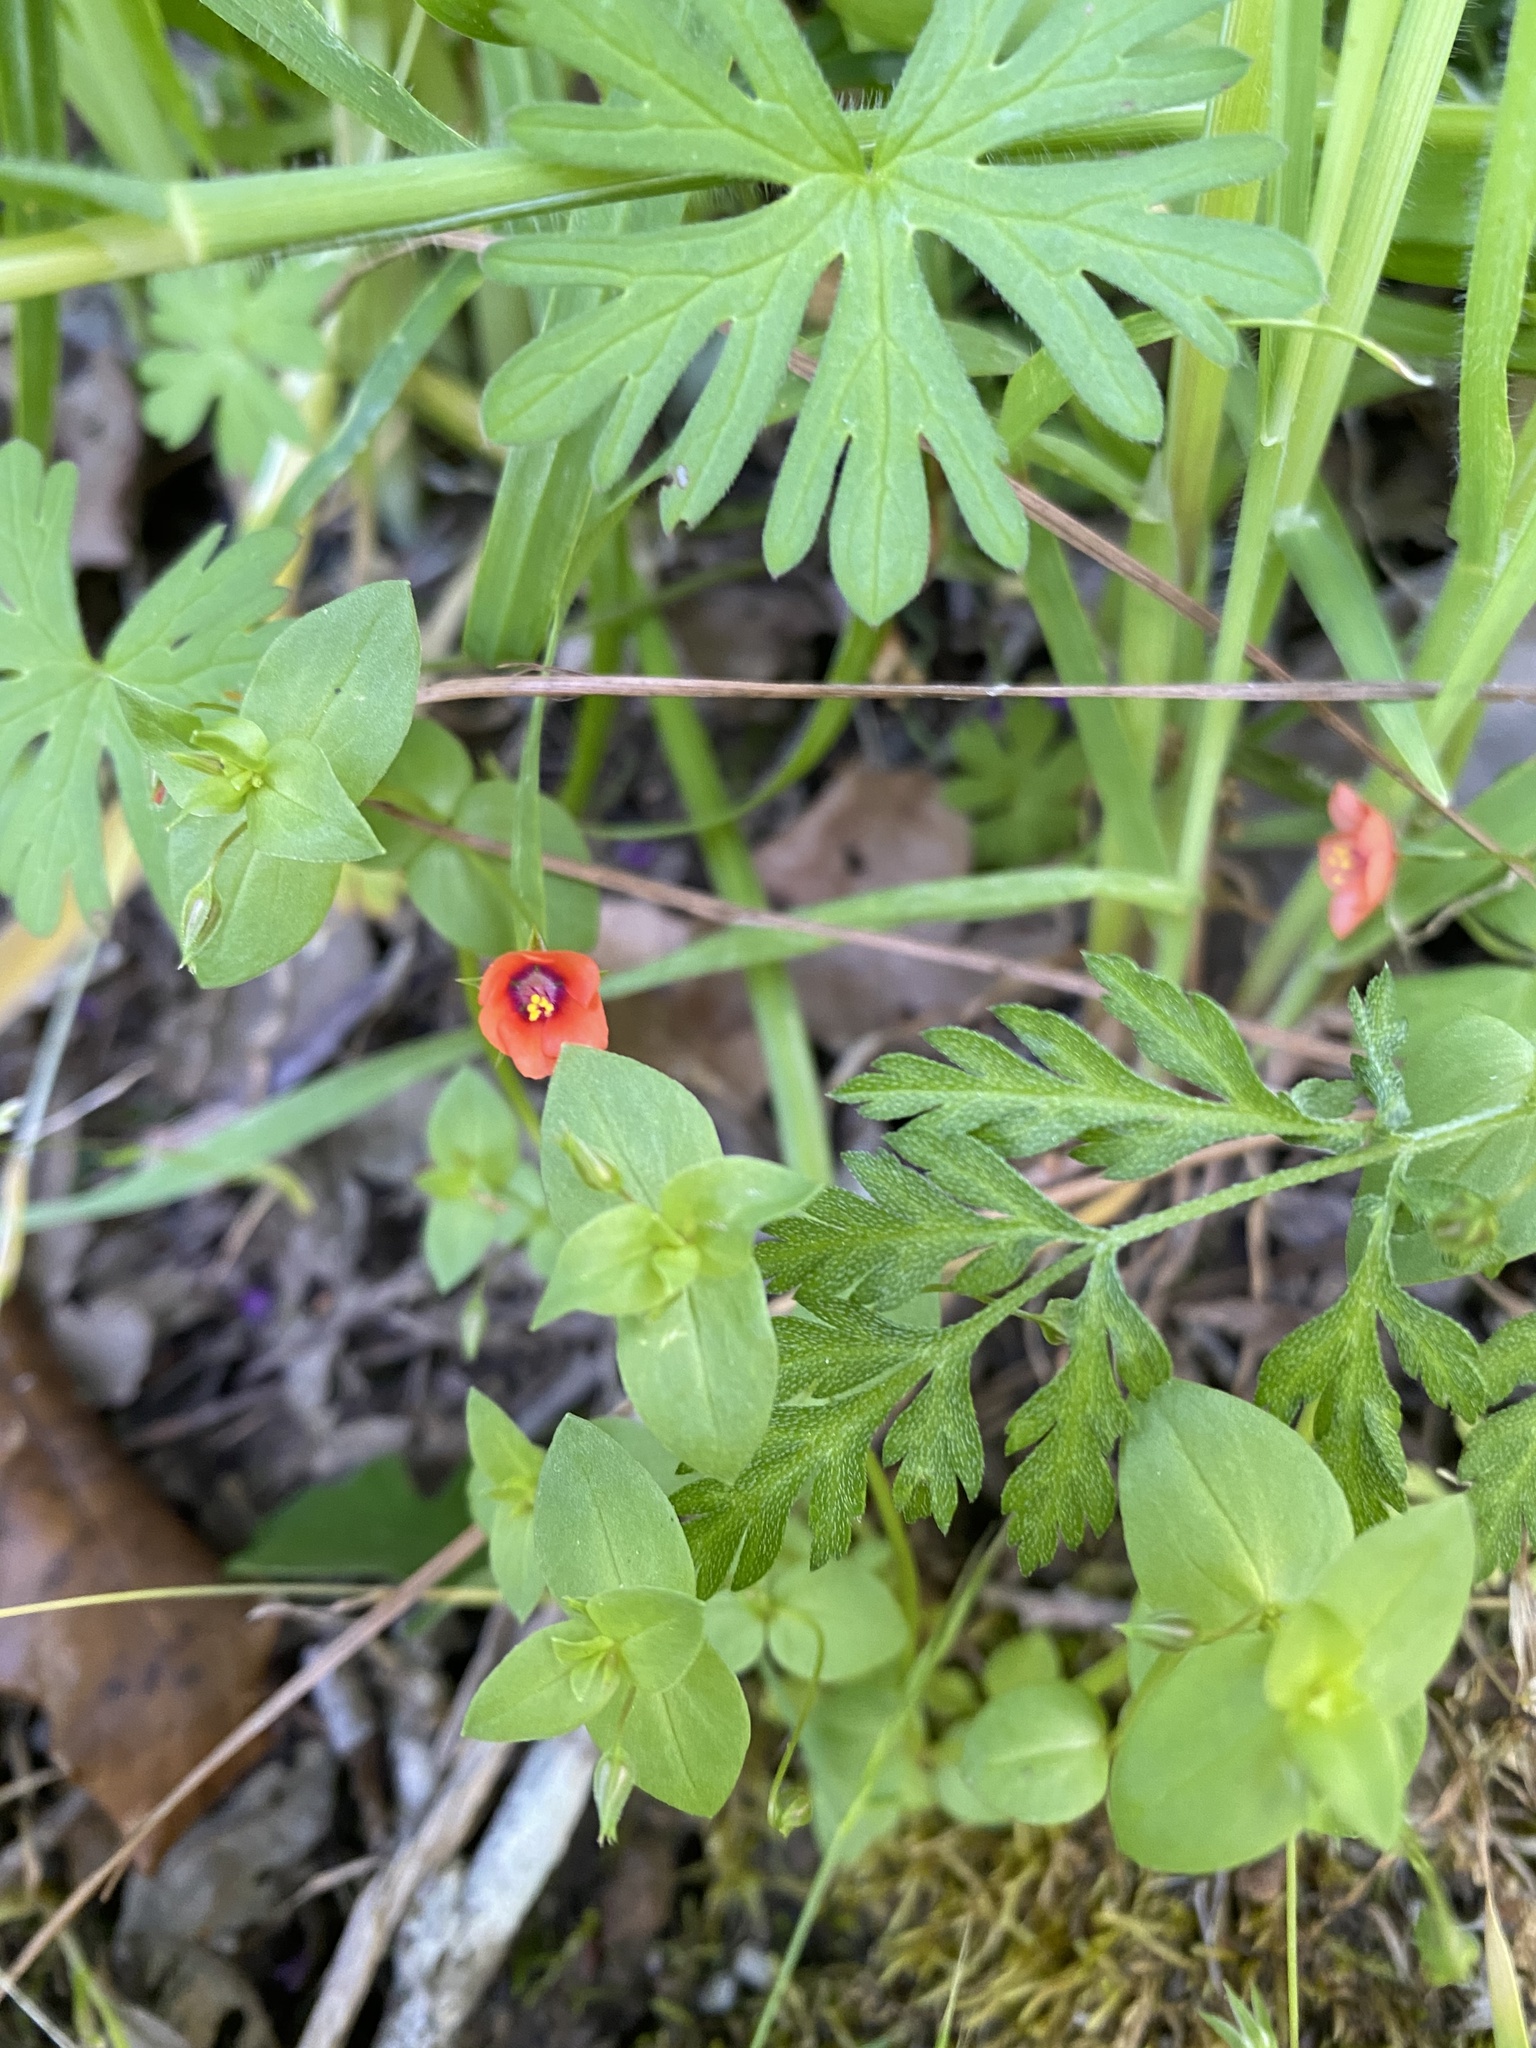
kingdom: Plantae
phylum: Tracheophyta
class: Magnoliopsida
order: Ericales
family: Primulaceae
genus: Lysimachia
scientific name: Lysimachia arvensis
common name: Scarlet pimpernel
